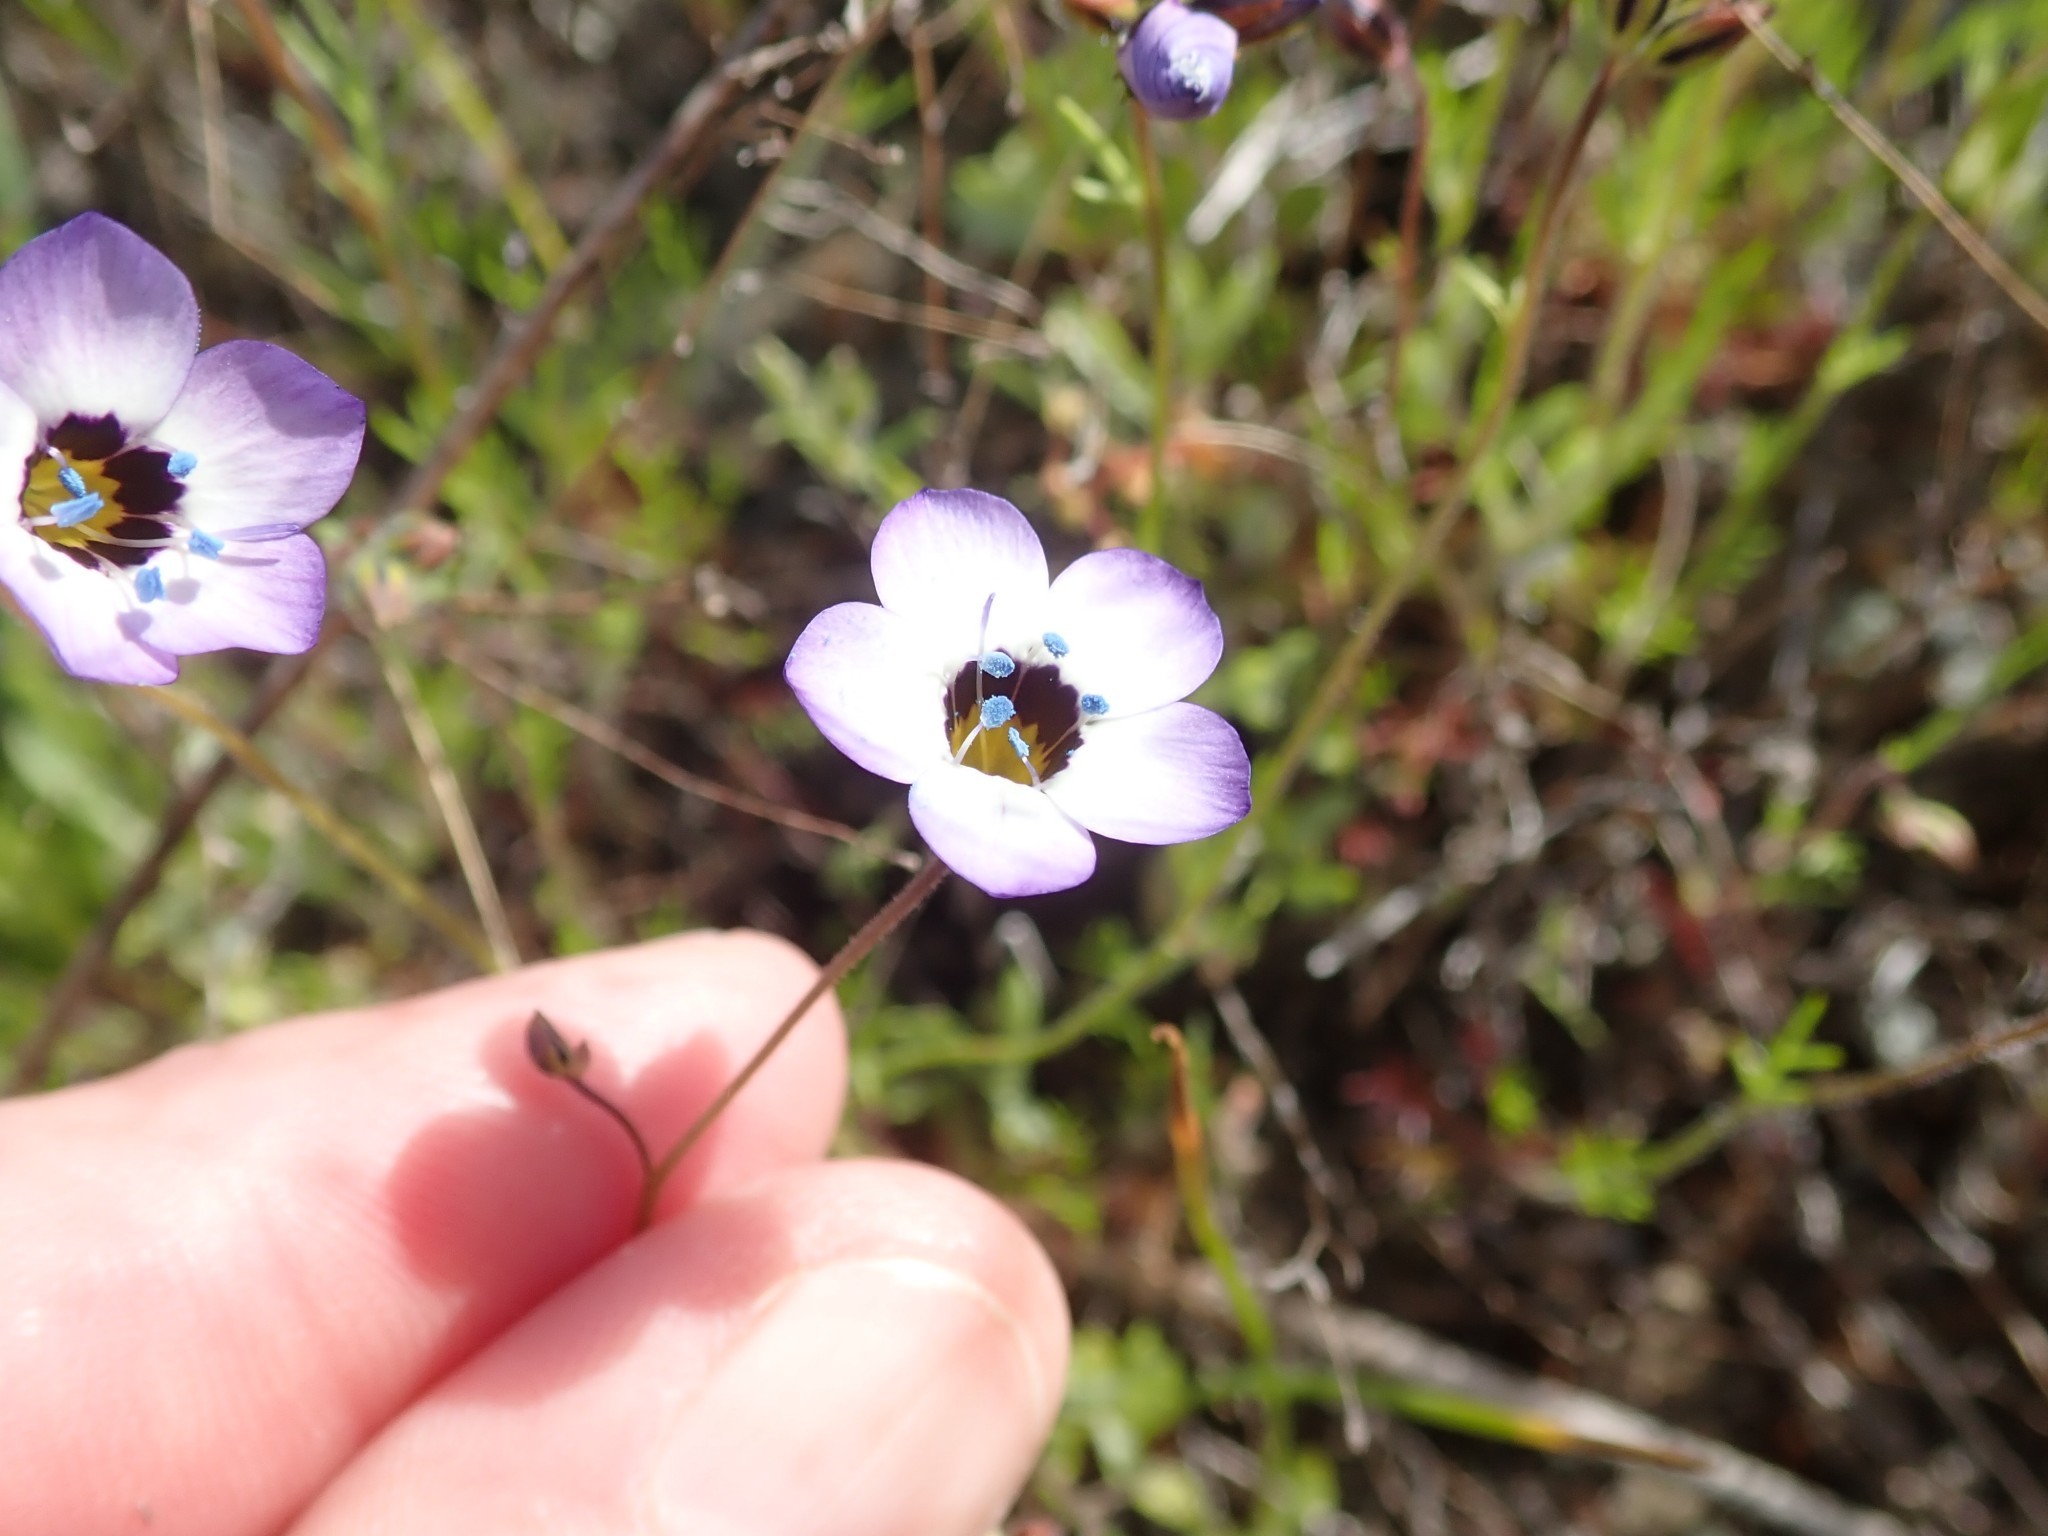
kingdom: Plantae
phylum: Tracheophyta
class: Magnoliopsida
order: Ericales
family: Polemoniaceae
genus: Gilia
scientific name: Gilia tricolor
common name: Bird's-eyes
